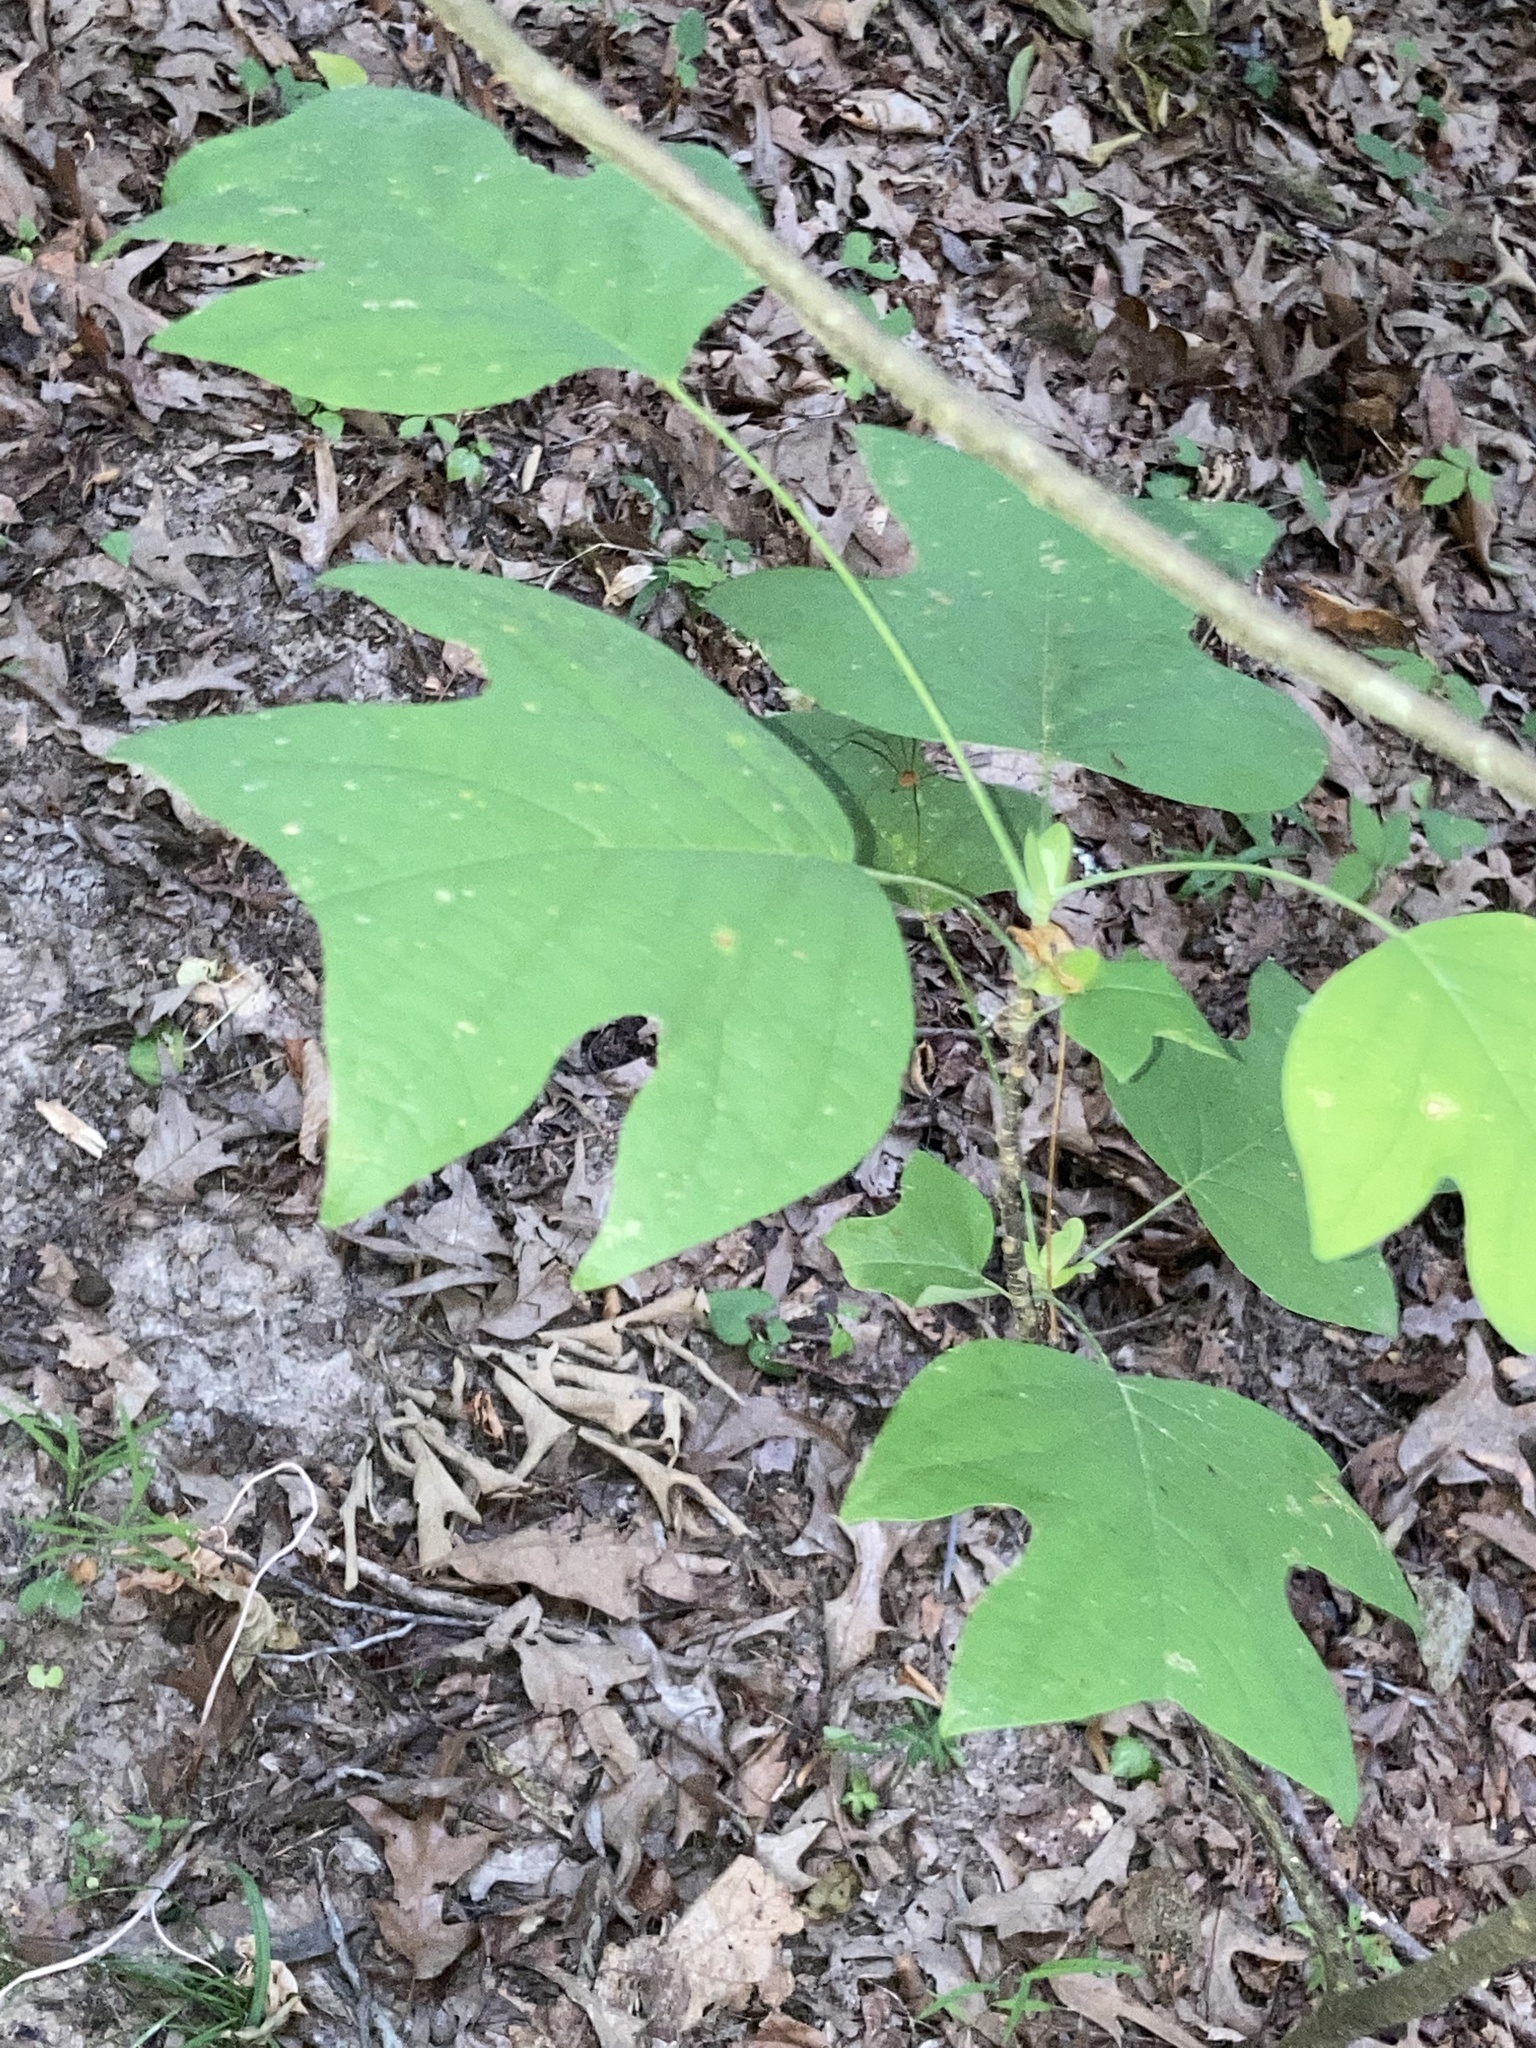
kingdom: Plantae
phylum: Tracheophyta
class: Magnoliopsida
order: Magnoliales
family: Magnoliaceae
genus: Liriodendron
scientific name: Liriodendron tulipifera
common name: Tulip tree
